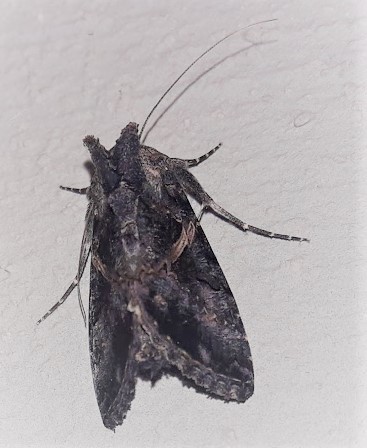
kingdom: Animalia
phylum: Arthropoda
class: Insecta
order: Lepidoptera
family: Noctuidae
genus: Ctenoplusia
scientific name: Ctenoplusia oxygramma
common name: Sharp-stigma looper moth
